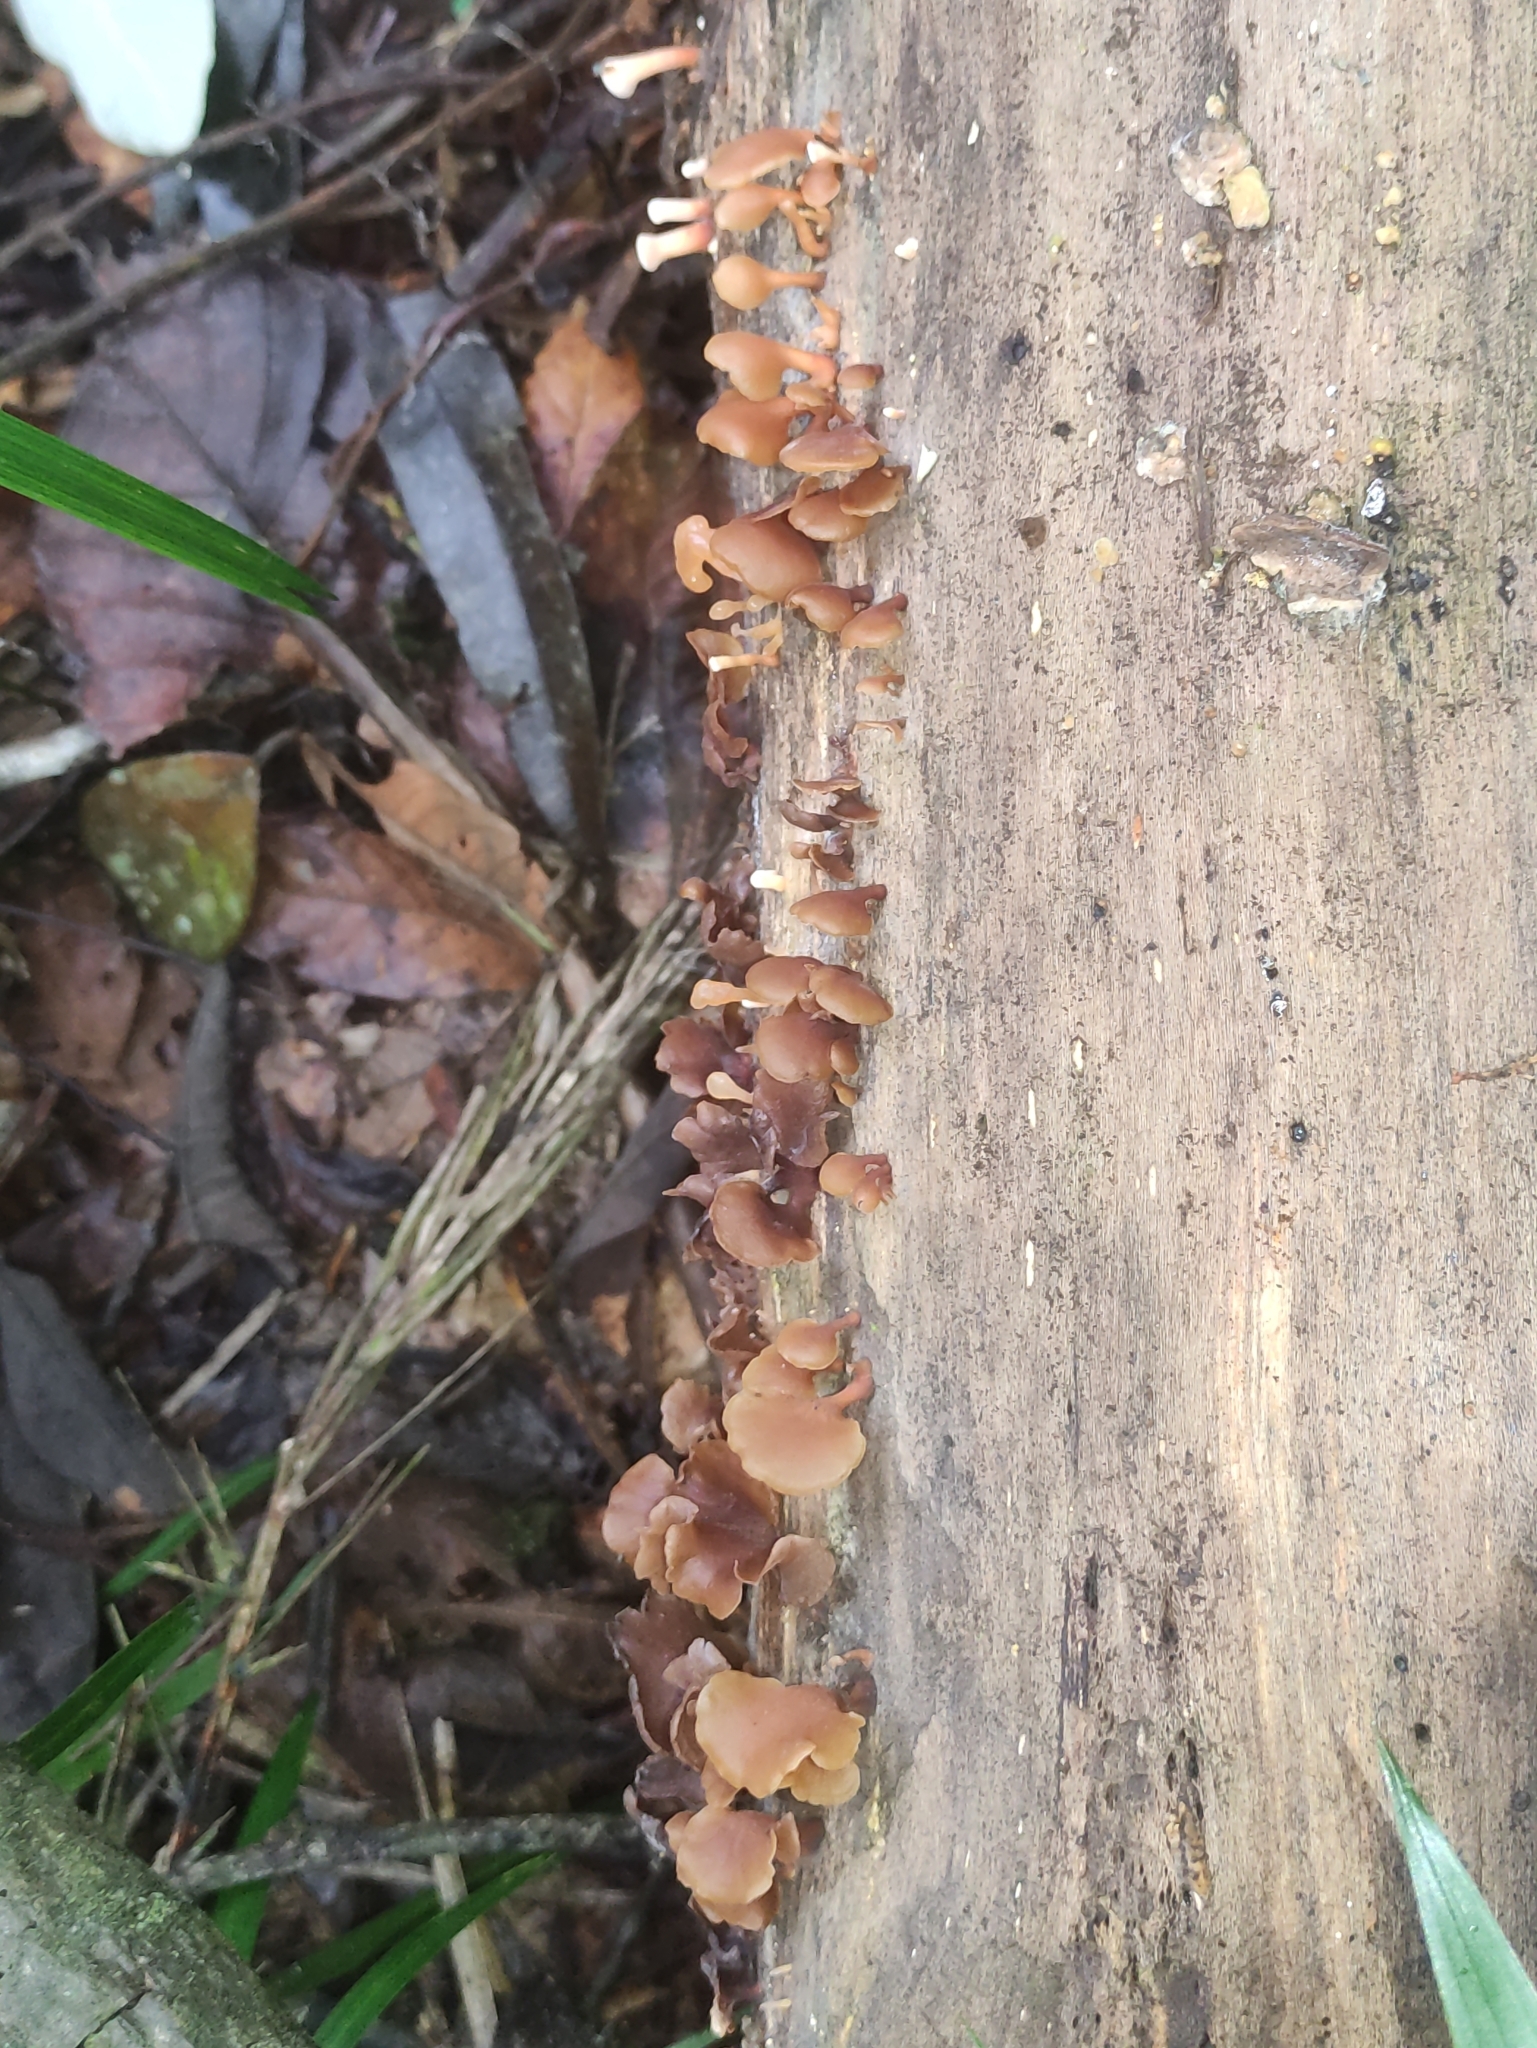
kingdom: Fungi
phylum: Basidiomycota
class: Dacrymycetes
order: Dacrymycetales
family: Dacrymycetaceae
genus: Dacryopinax
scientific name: Dacryopinax elegans
